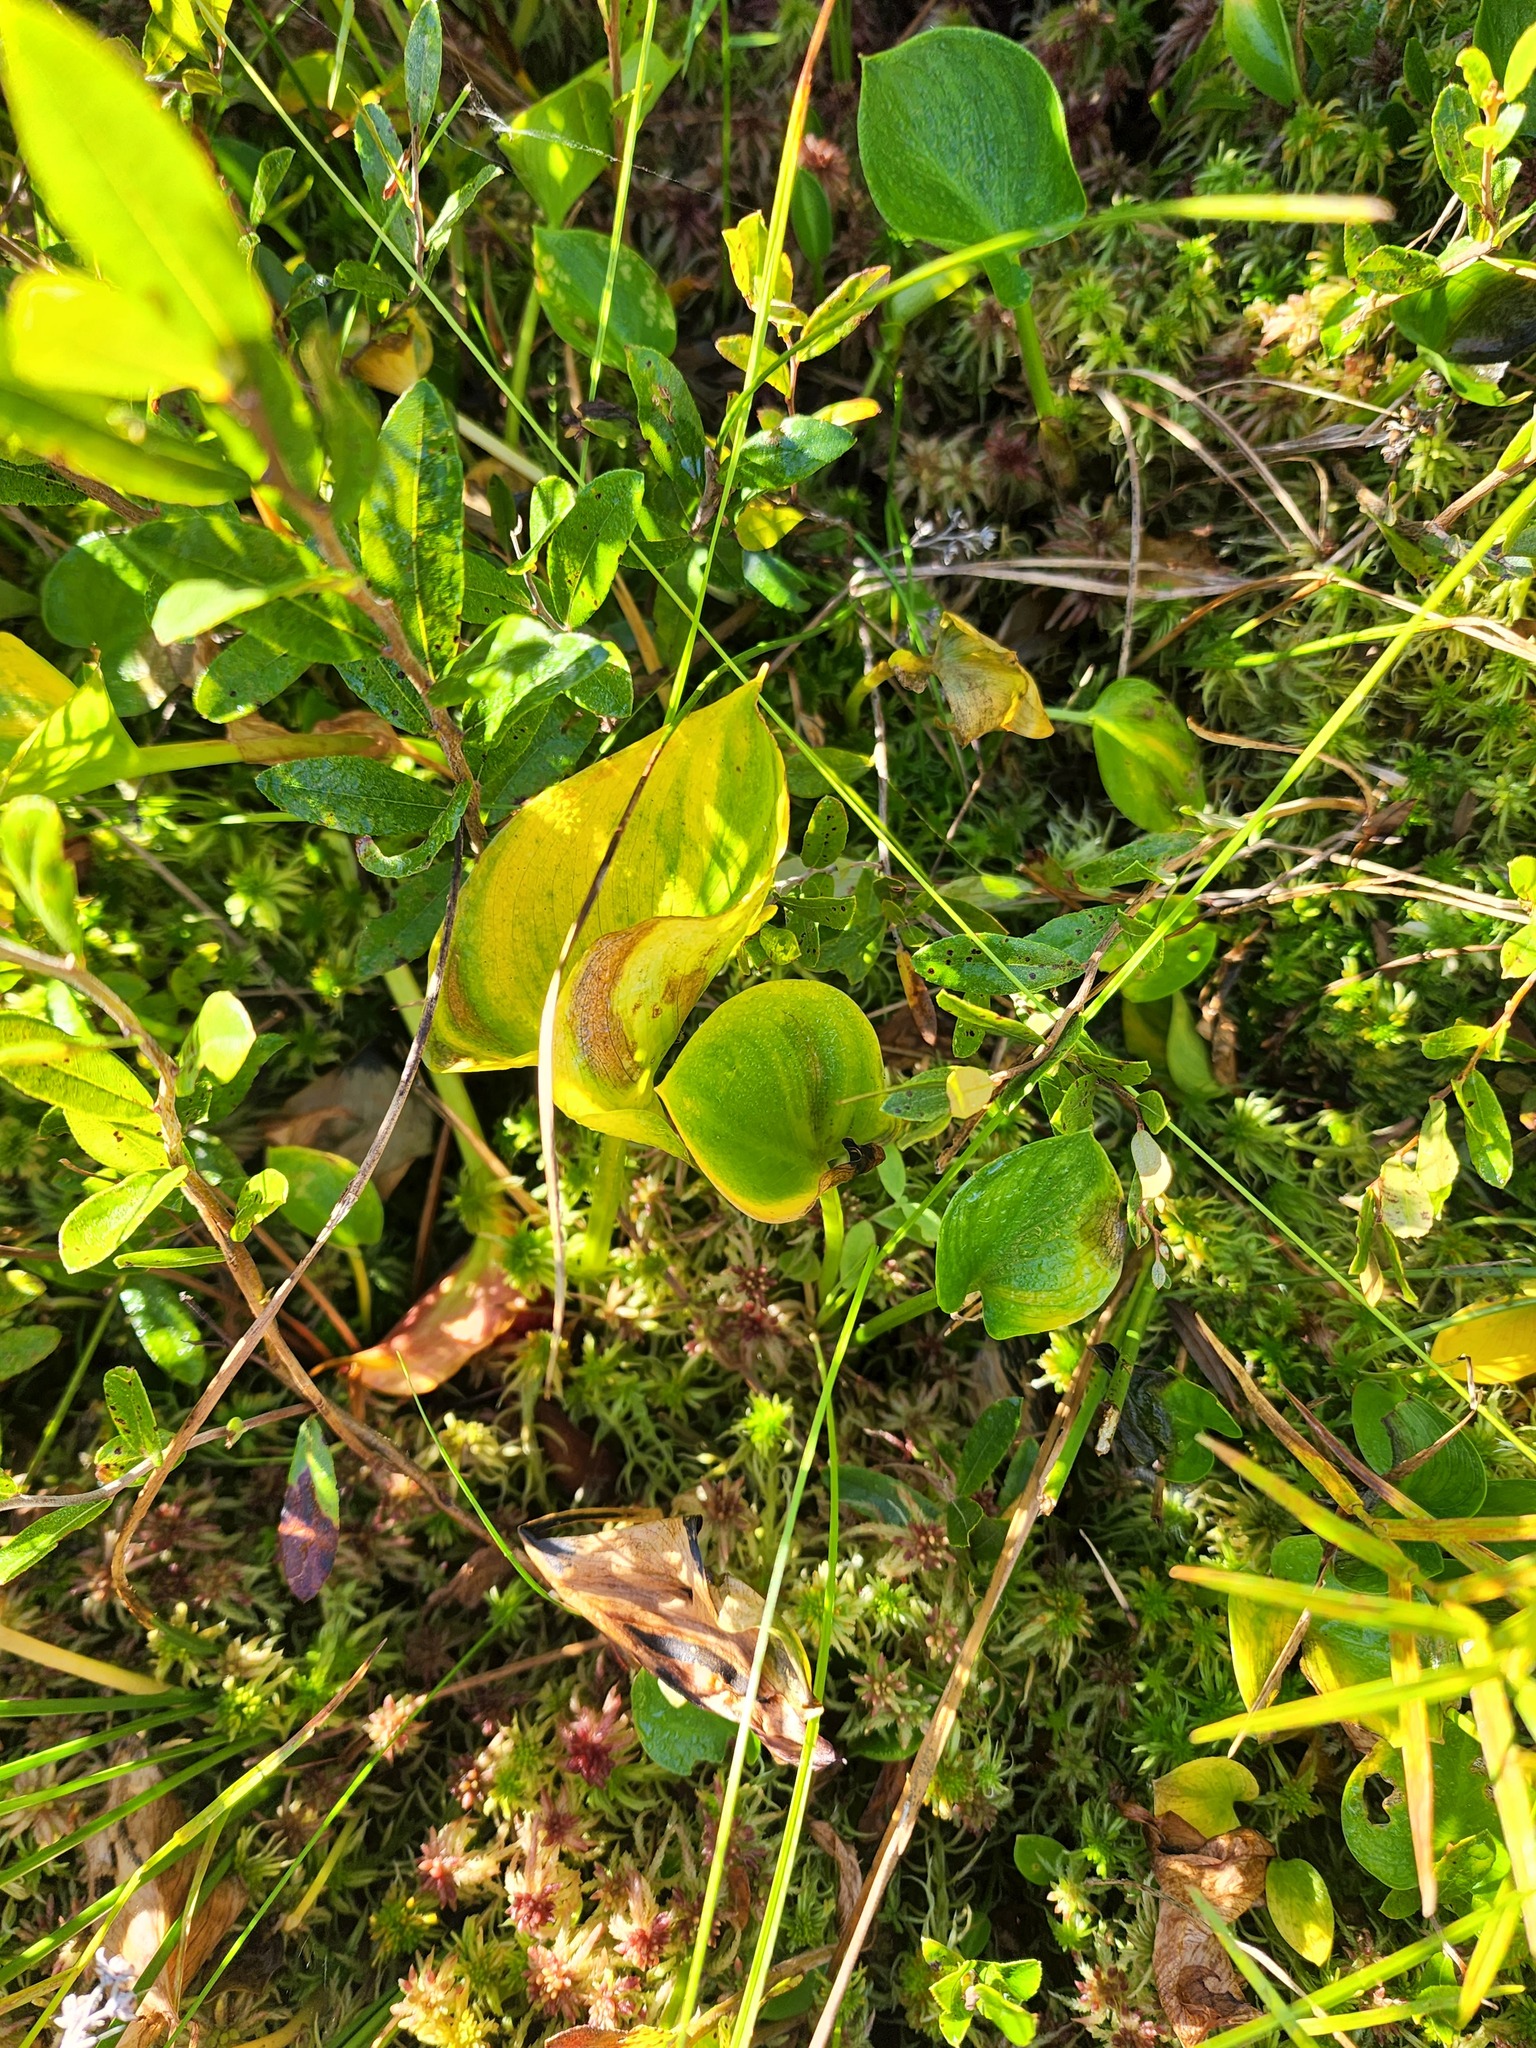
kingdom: Plantae
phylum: Tracheophyta
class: Liliopsida
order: Alismatales
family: Araceae
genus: Calla
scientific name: Calla palustris
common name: Bog arum
